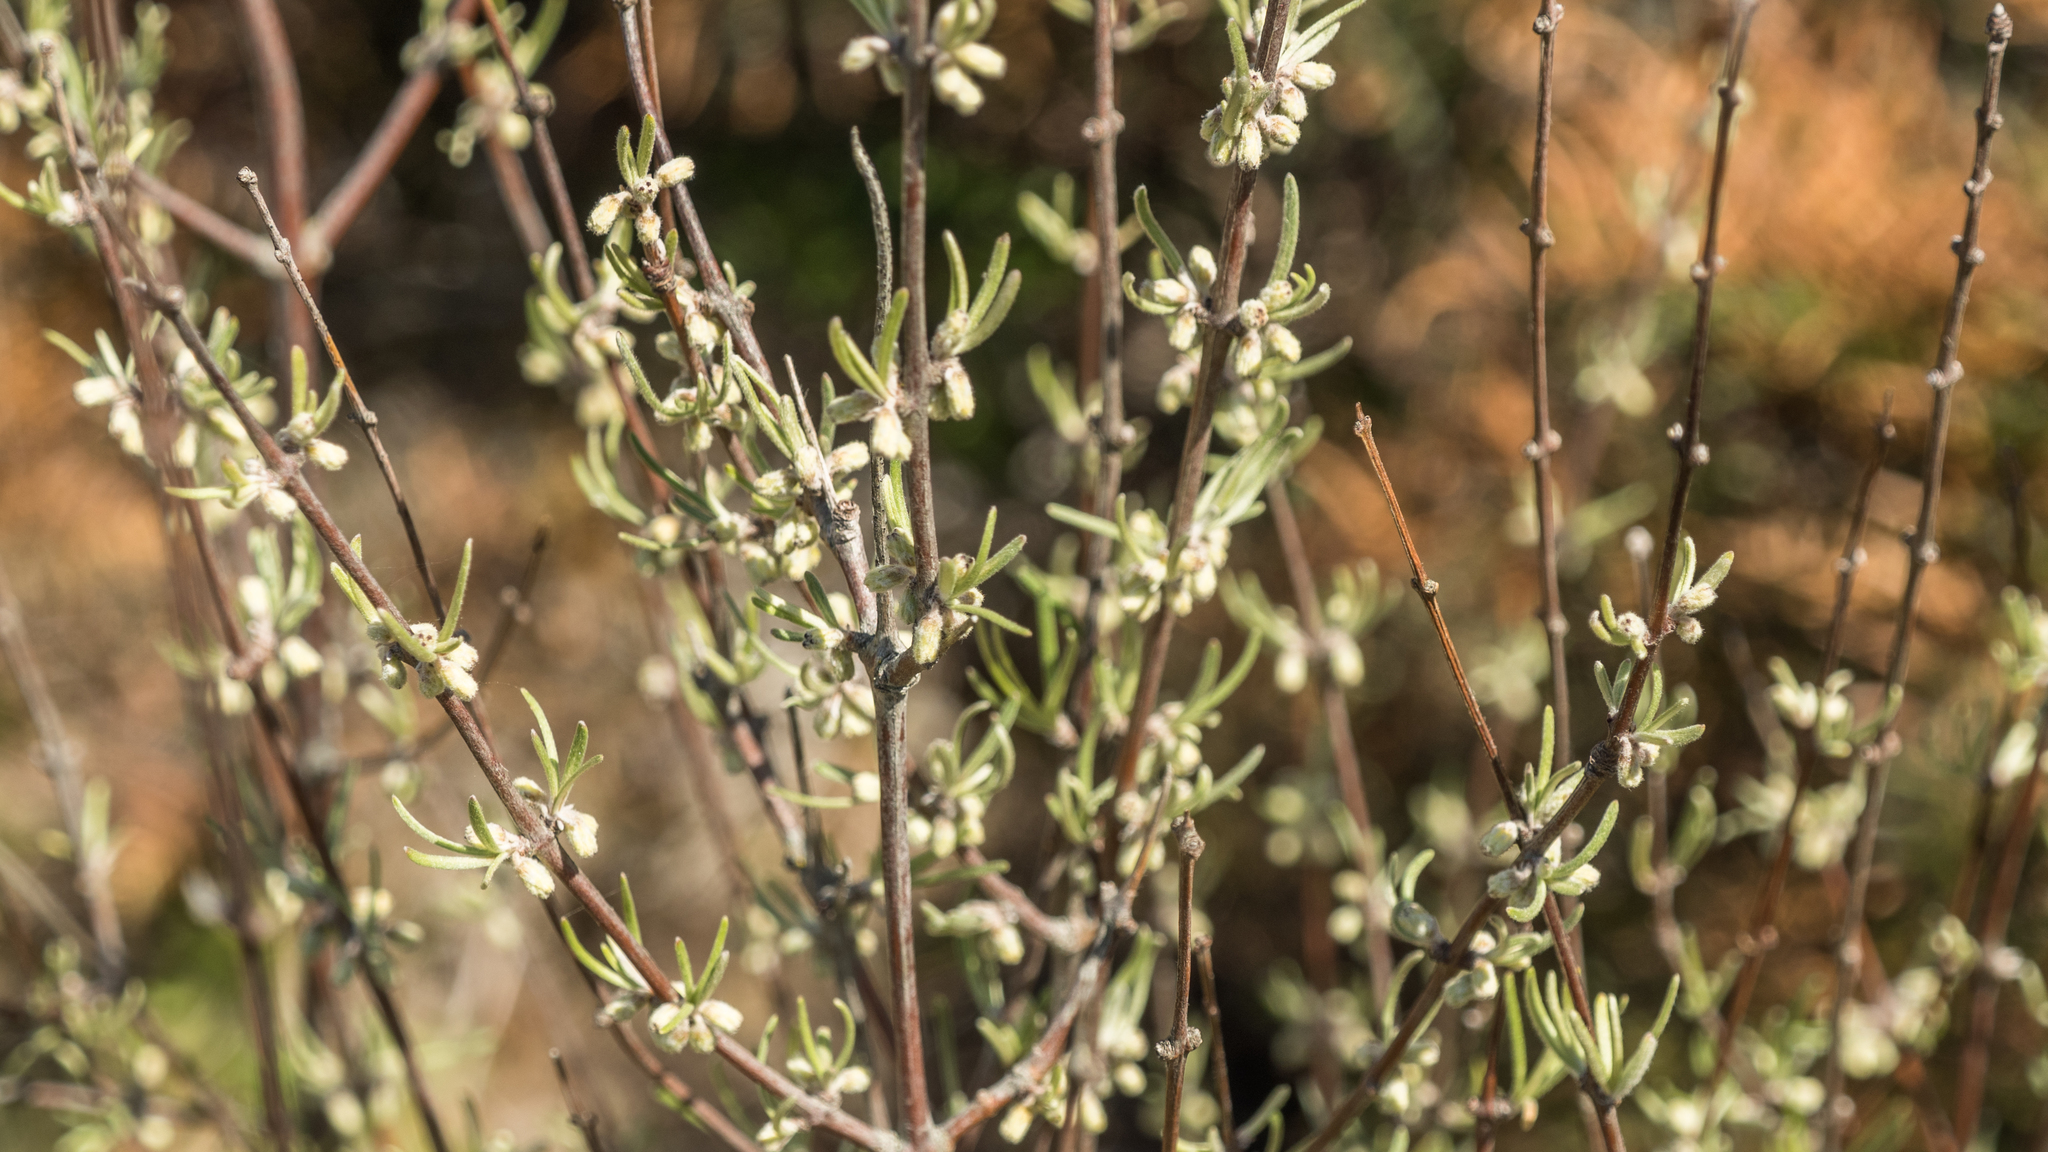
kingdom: Plantae
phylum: Tracheophyta
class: Magnoliopsida
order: Asterales
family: Asteraceae
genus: Olearia
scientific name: Olearia lineata
